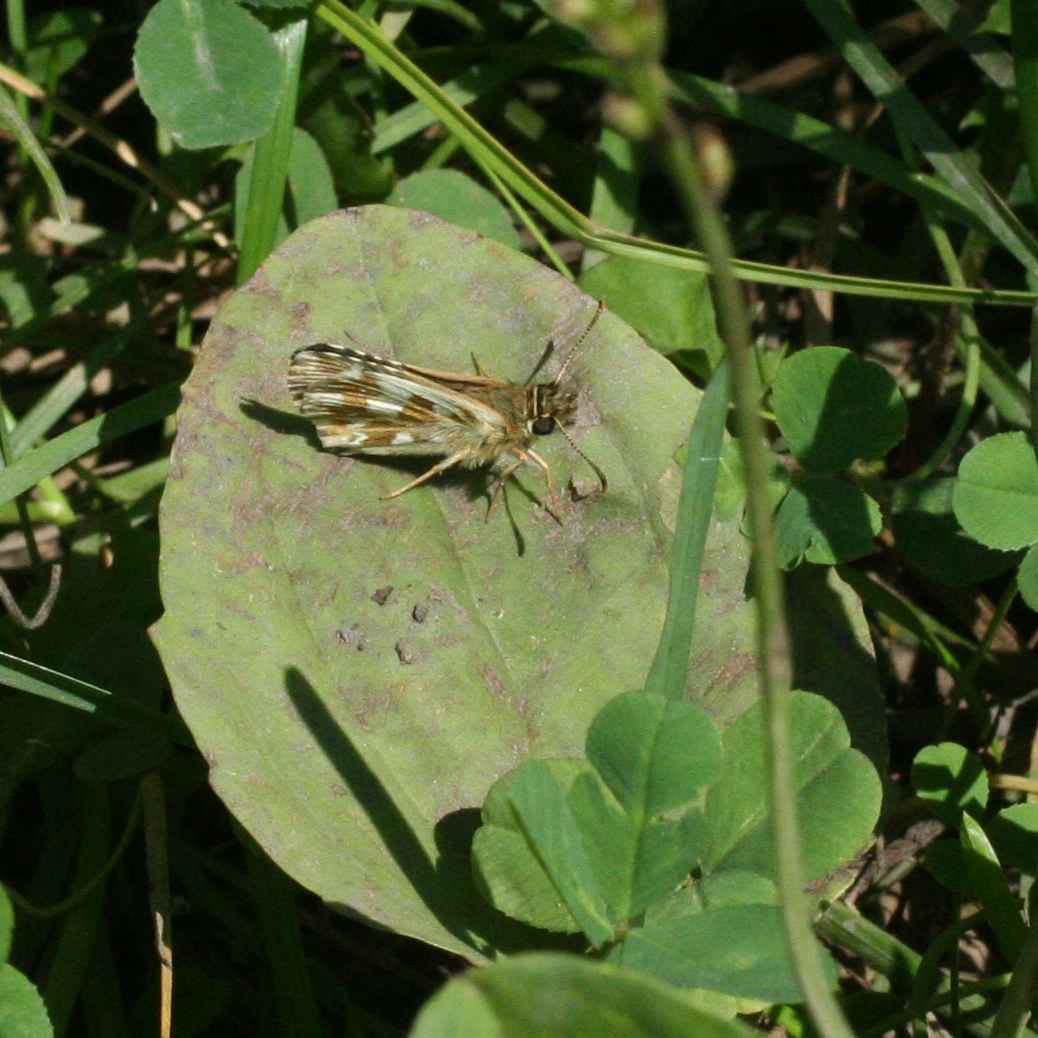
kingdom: Animalia
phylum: Arthropoda
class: Insecta
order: Lepidoptera
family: Hesperiidae
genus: Pyrgus
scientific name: Pyrgus
